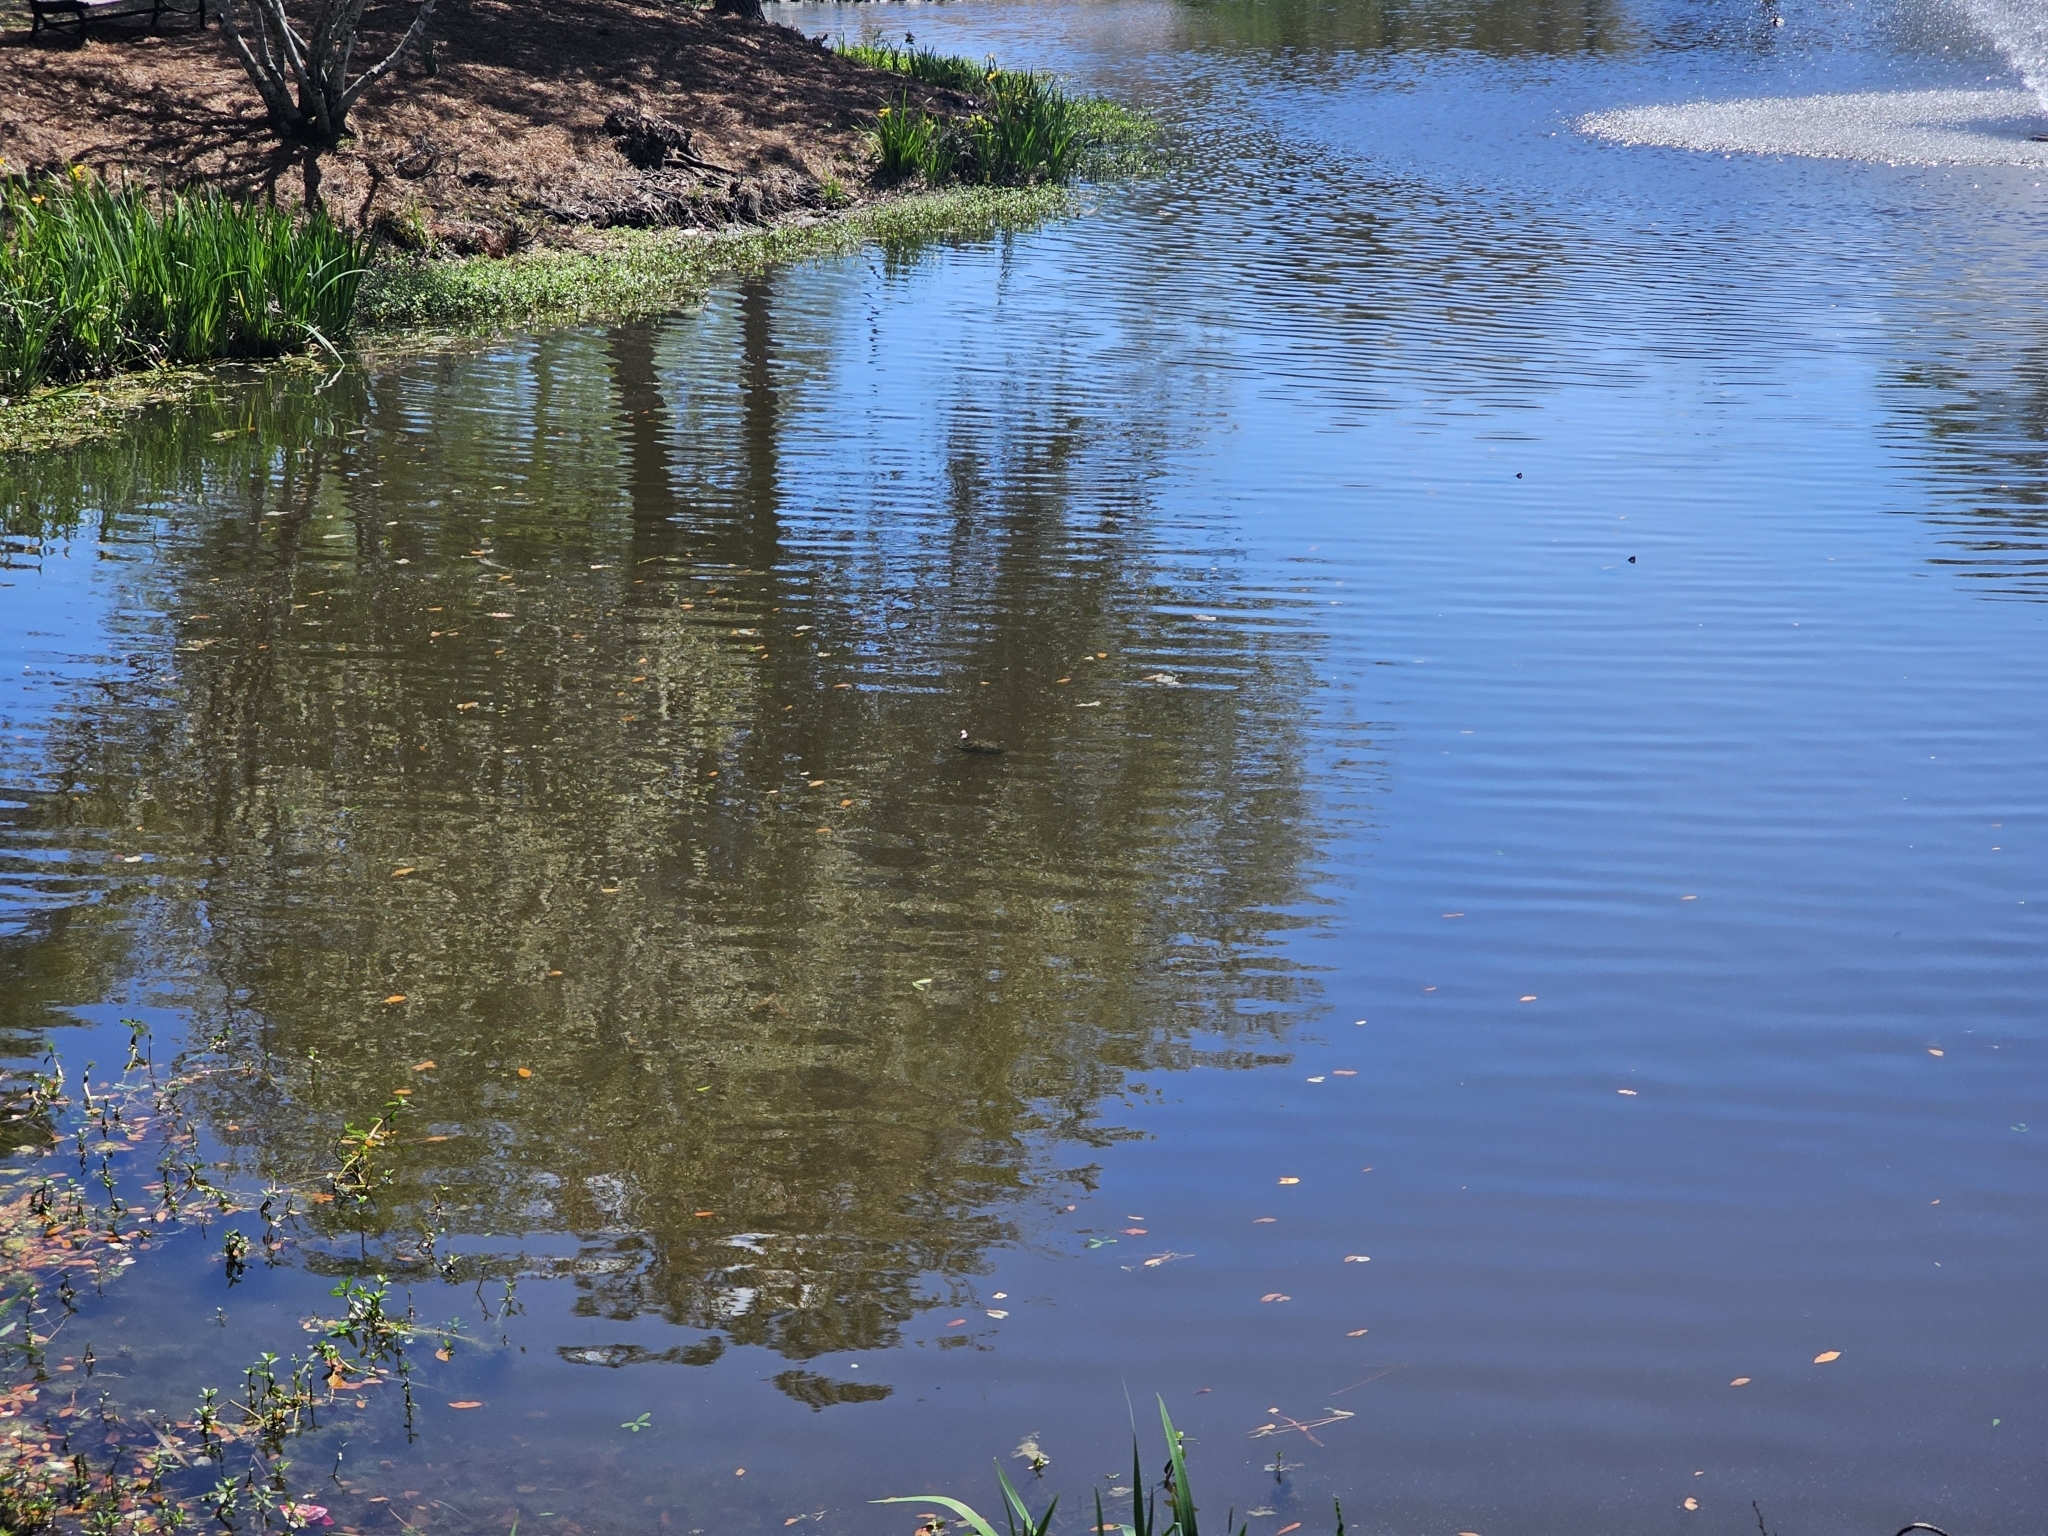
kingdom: Animalia
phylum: Chordata
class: Testudines
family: Emydidae
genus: Trachemys
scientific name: Trachemys scripta
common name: Slider
